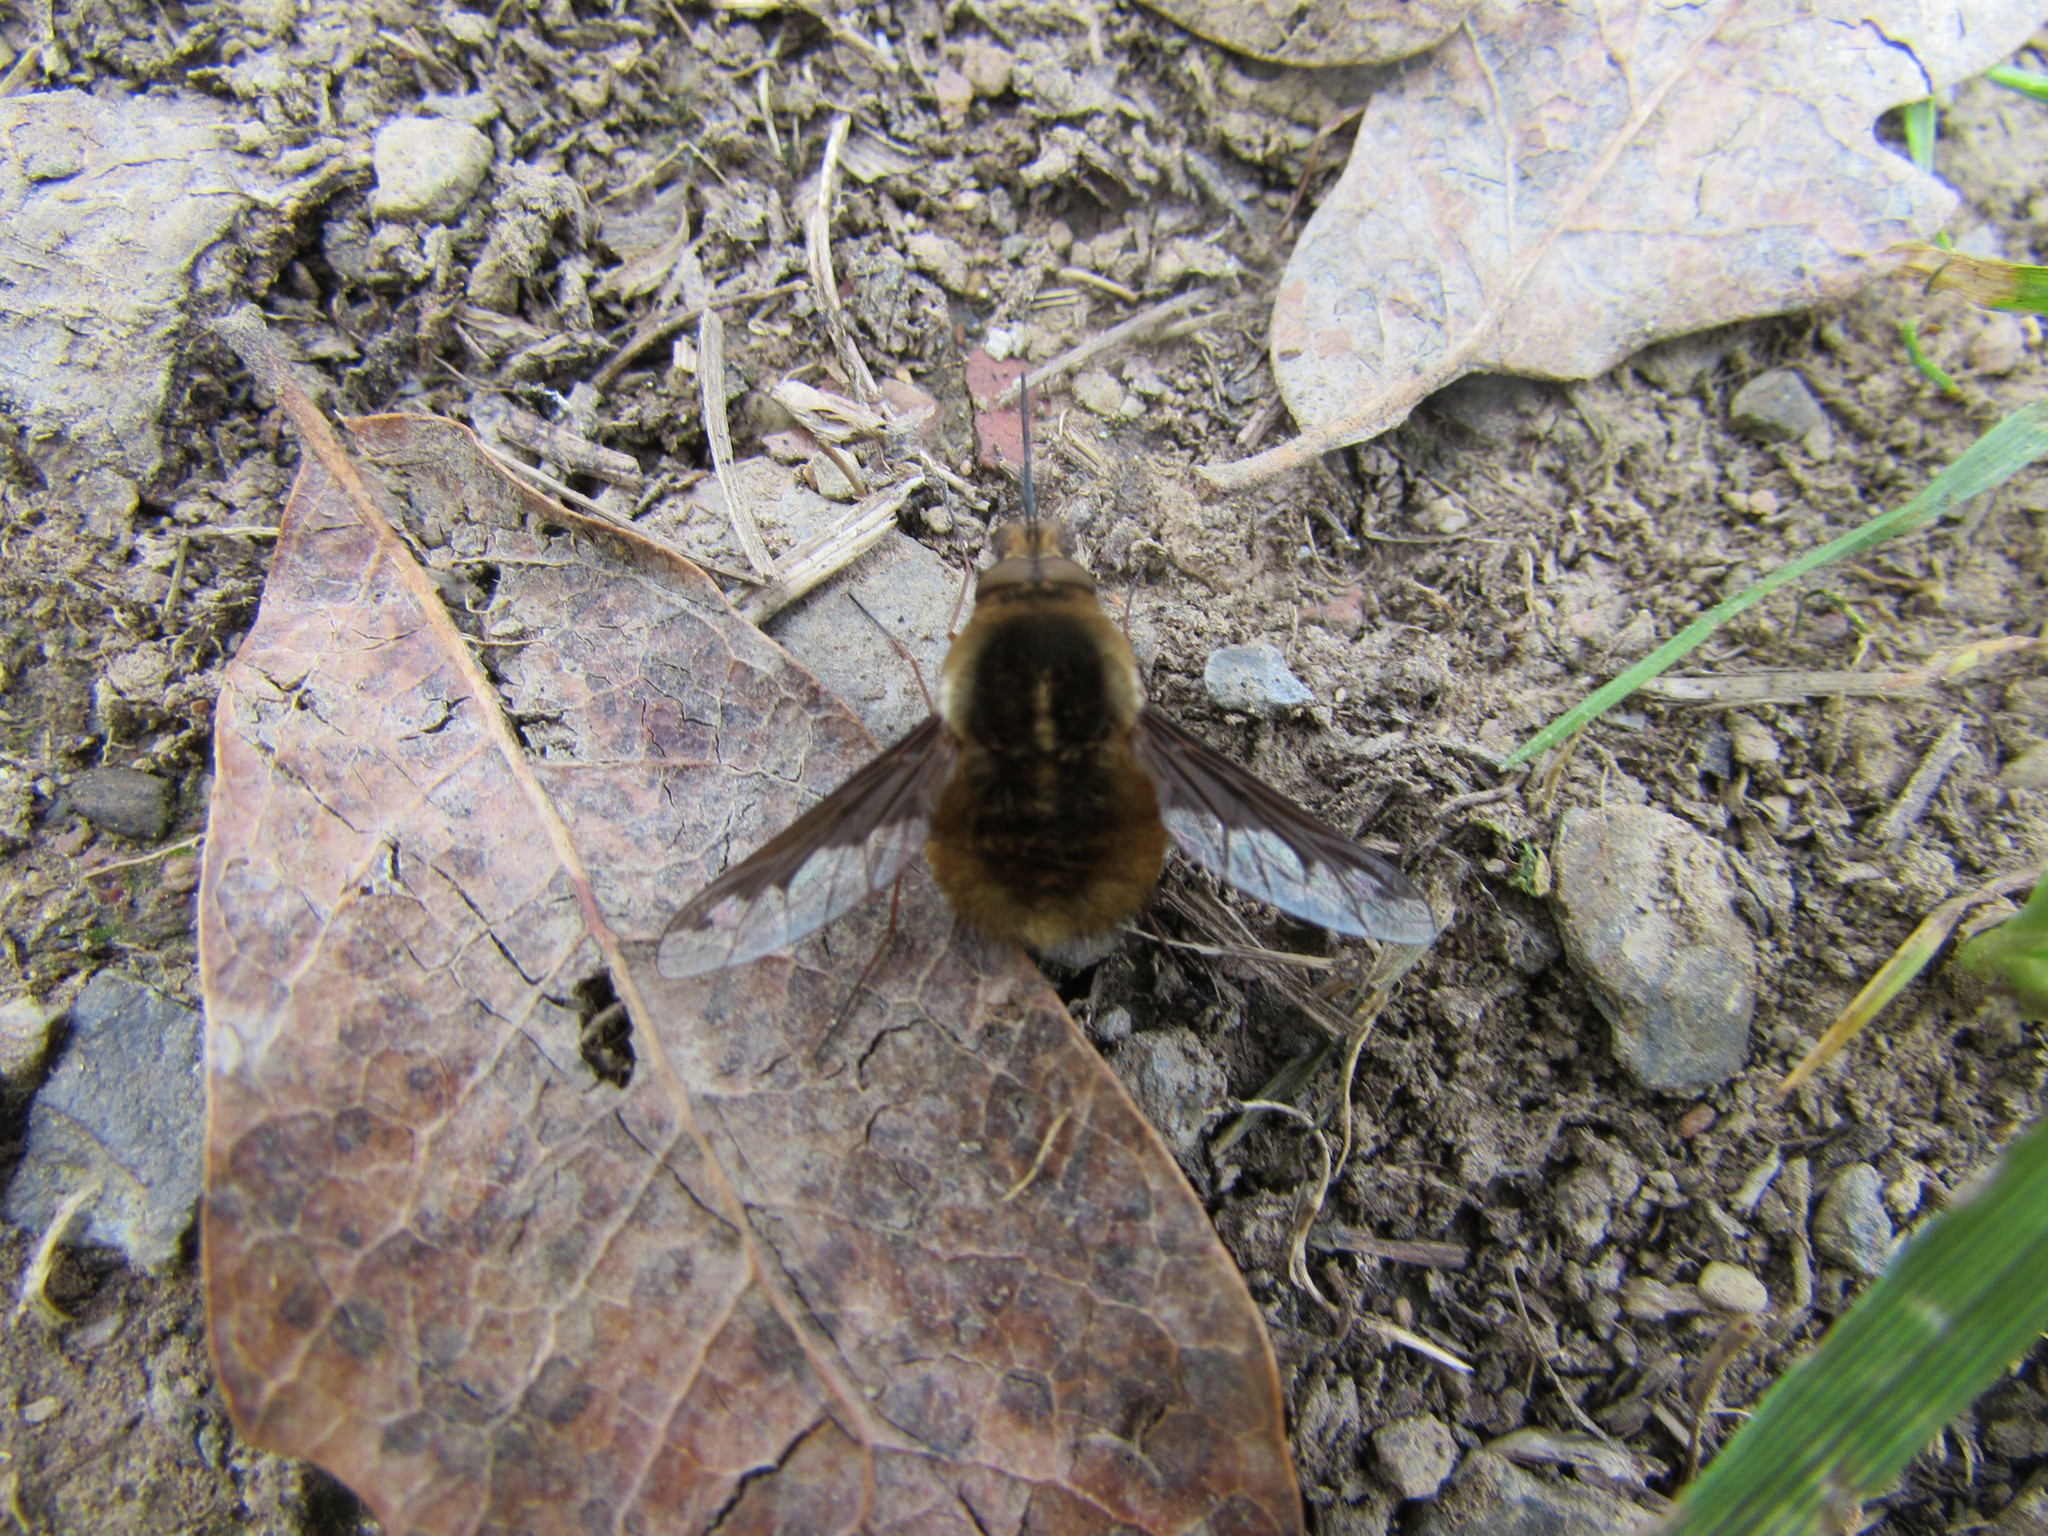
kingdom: Animalia
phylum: Arthropoda
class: Insecta
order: Diptera
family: Bombyliidae
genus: Bombylius
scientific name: Bombylius major
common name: Bee fly
